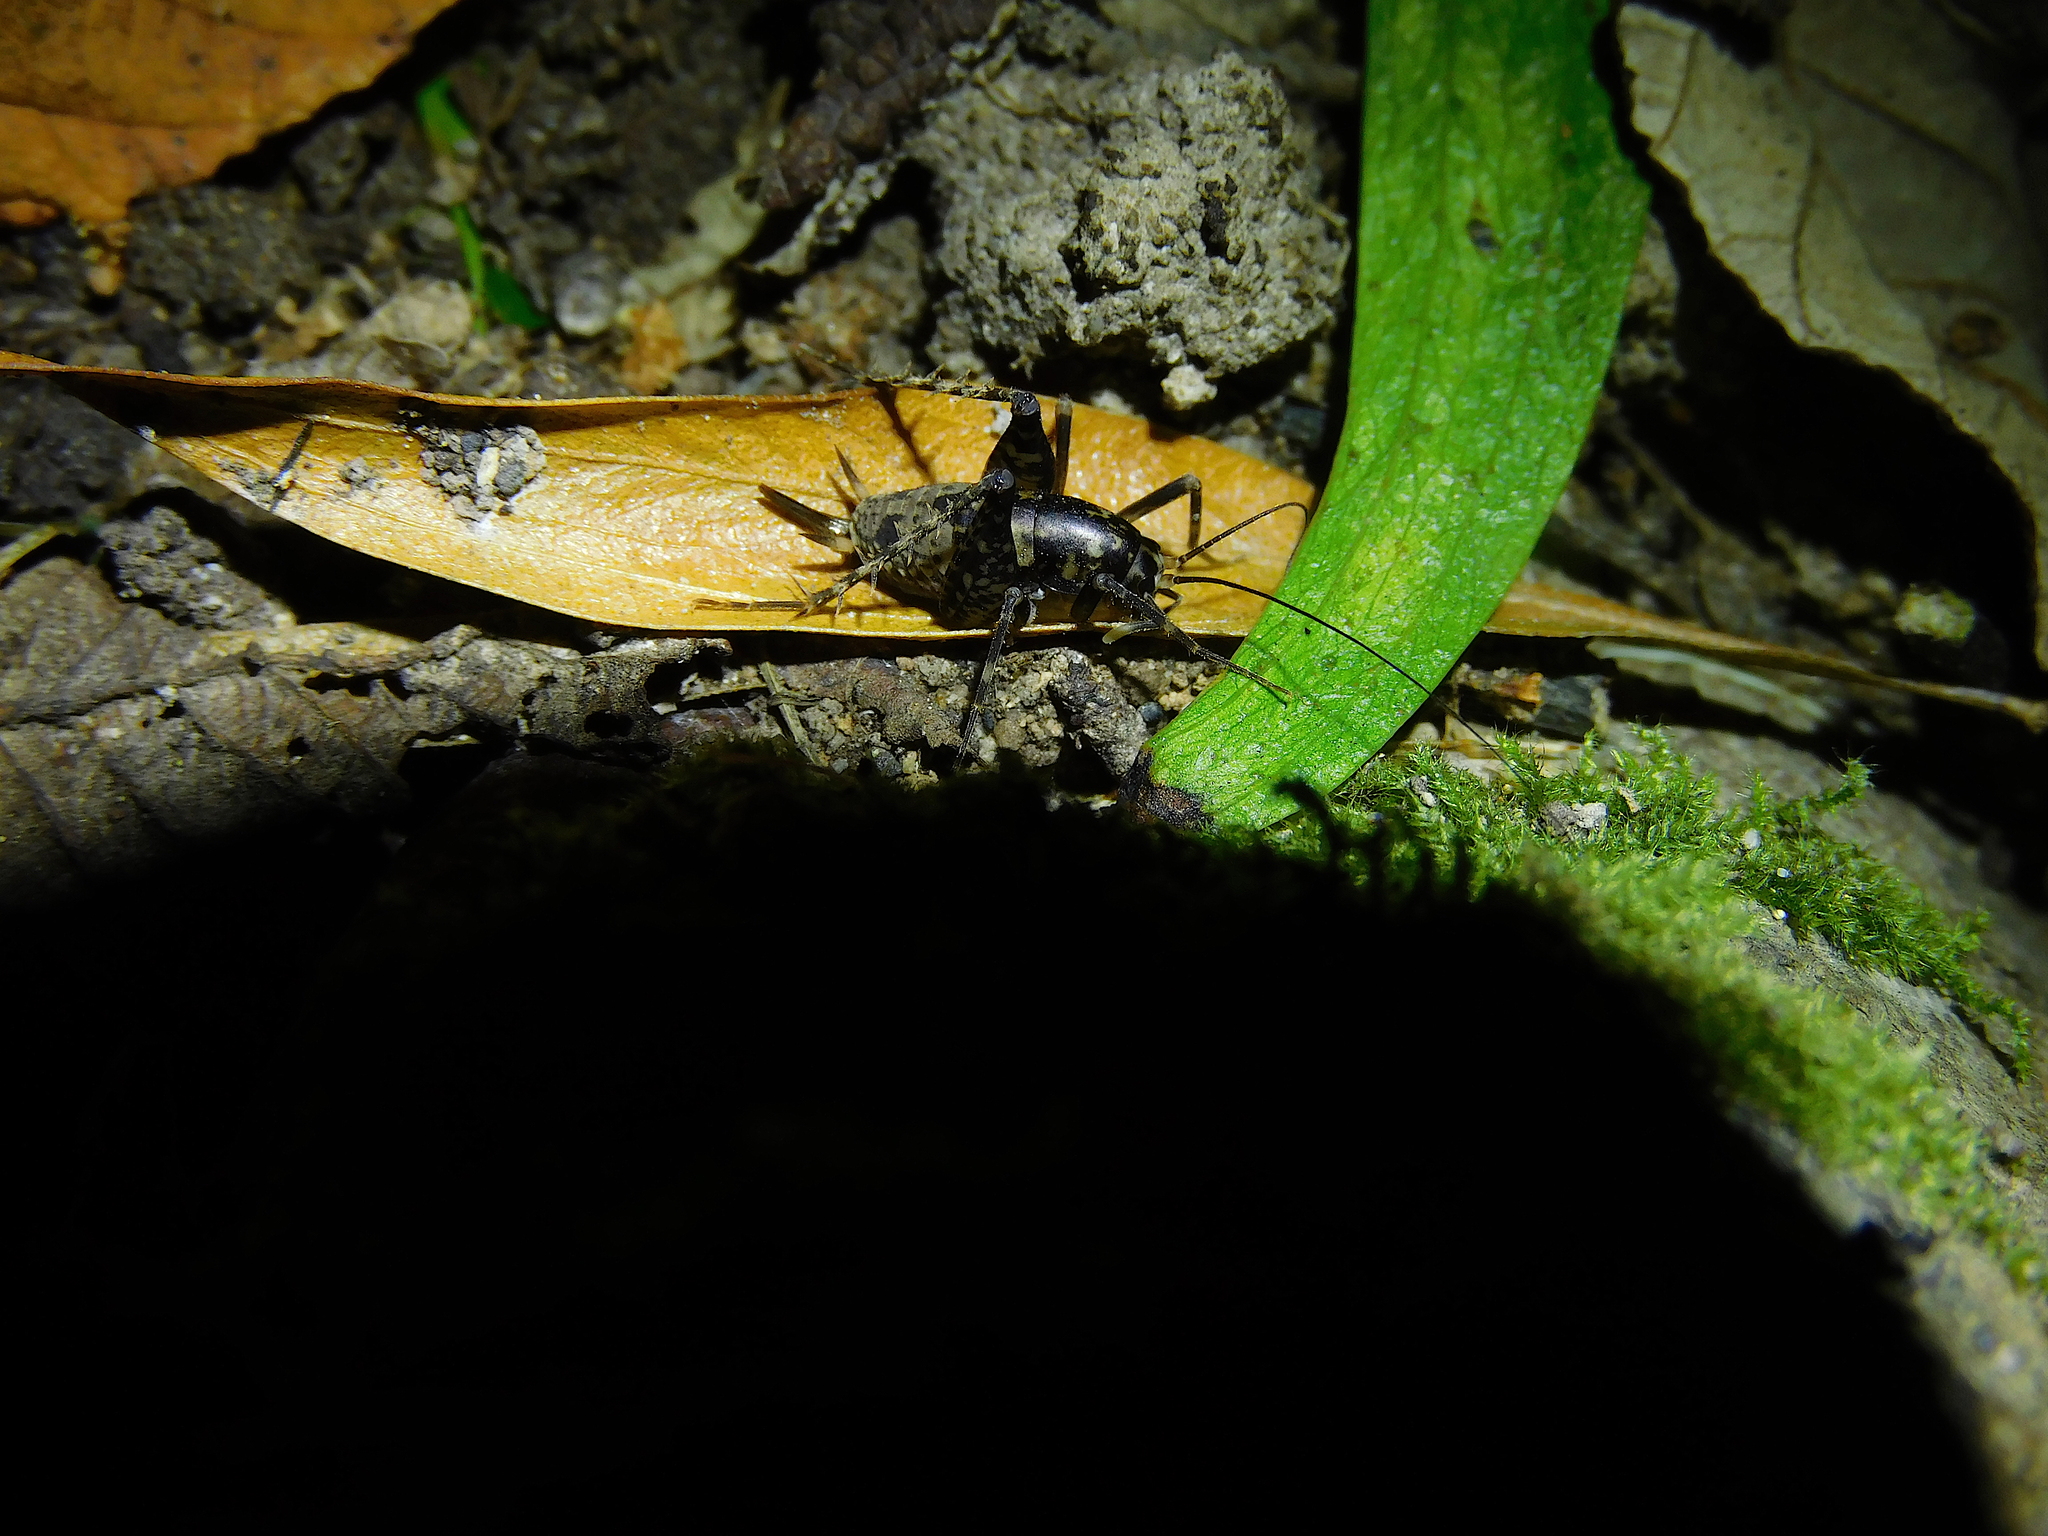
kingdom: Animalia
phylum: Arthropoda
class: Insecta
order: Orthoptera
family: Rhaphidophoridae
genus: Parvotettix
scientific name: Parvotettix domesticus
